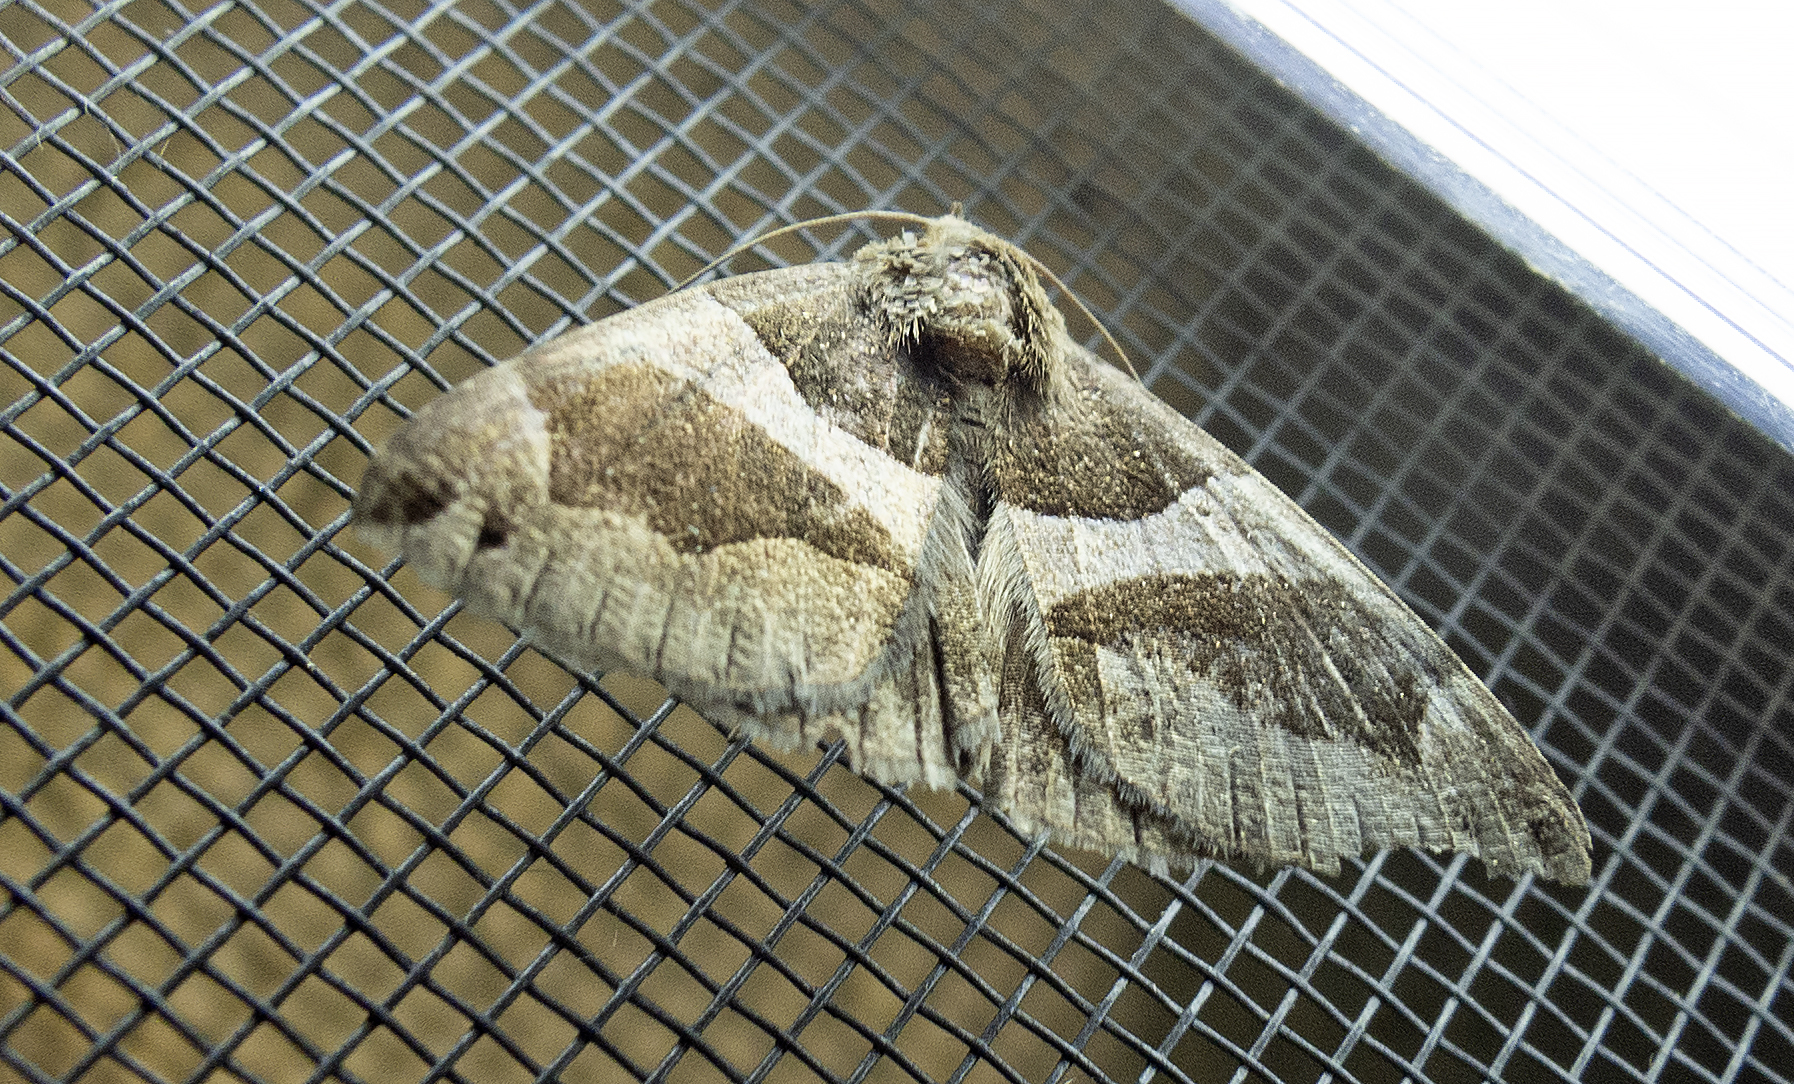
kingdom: Animalia
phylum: Arthropoda
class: Insecta
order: Lepidoptera
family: Erebidae
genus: Dysgonia
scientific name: Dysgonia algira
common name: Passenger
